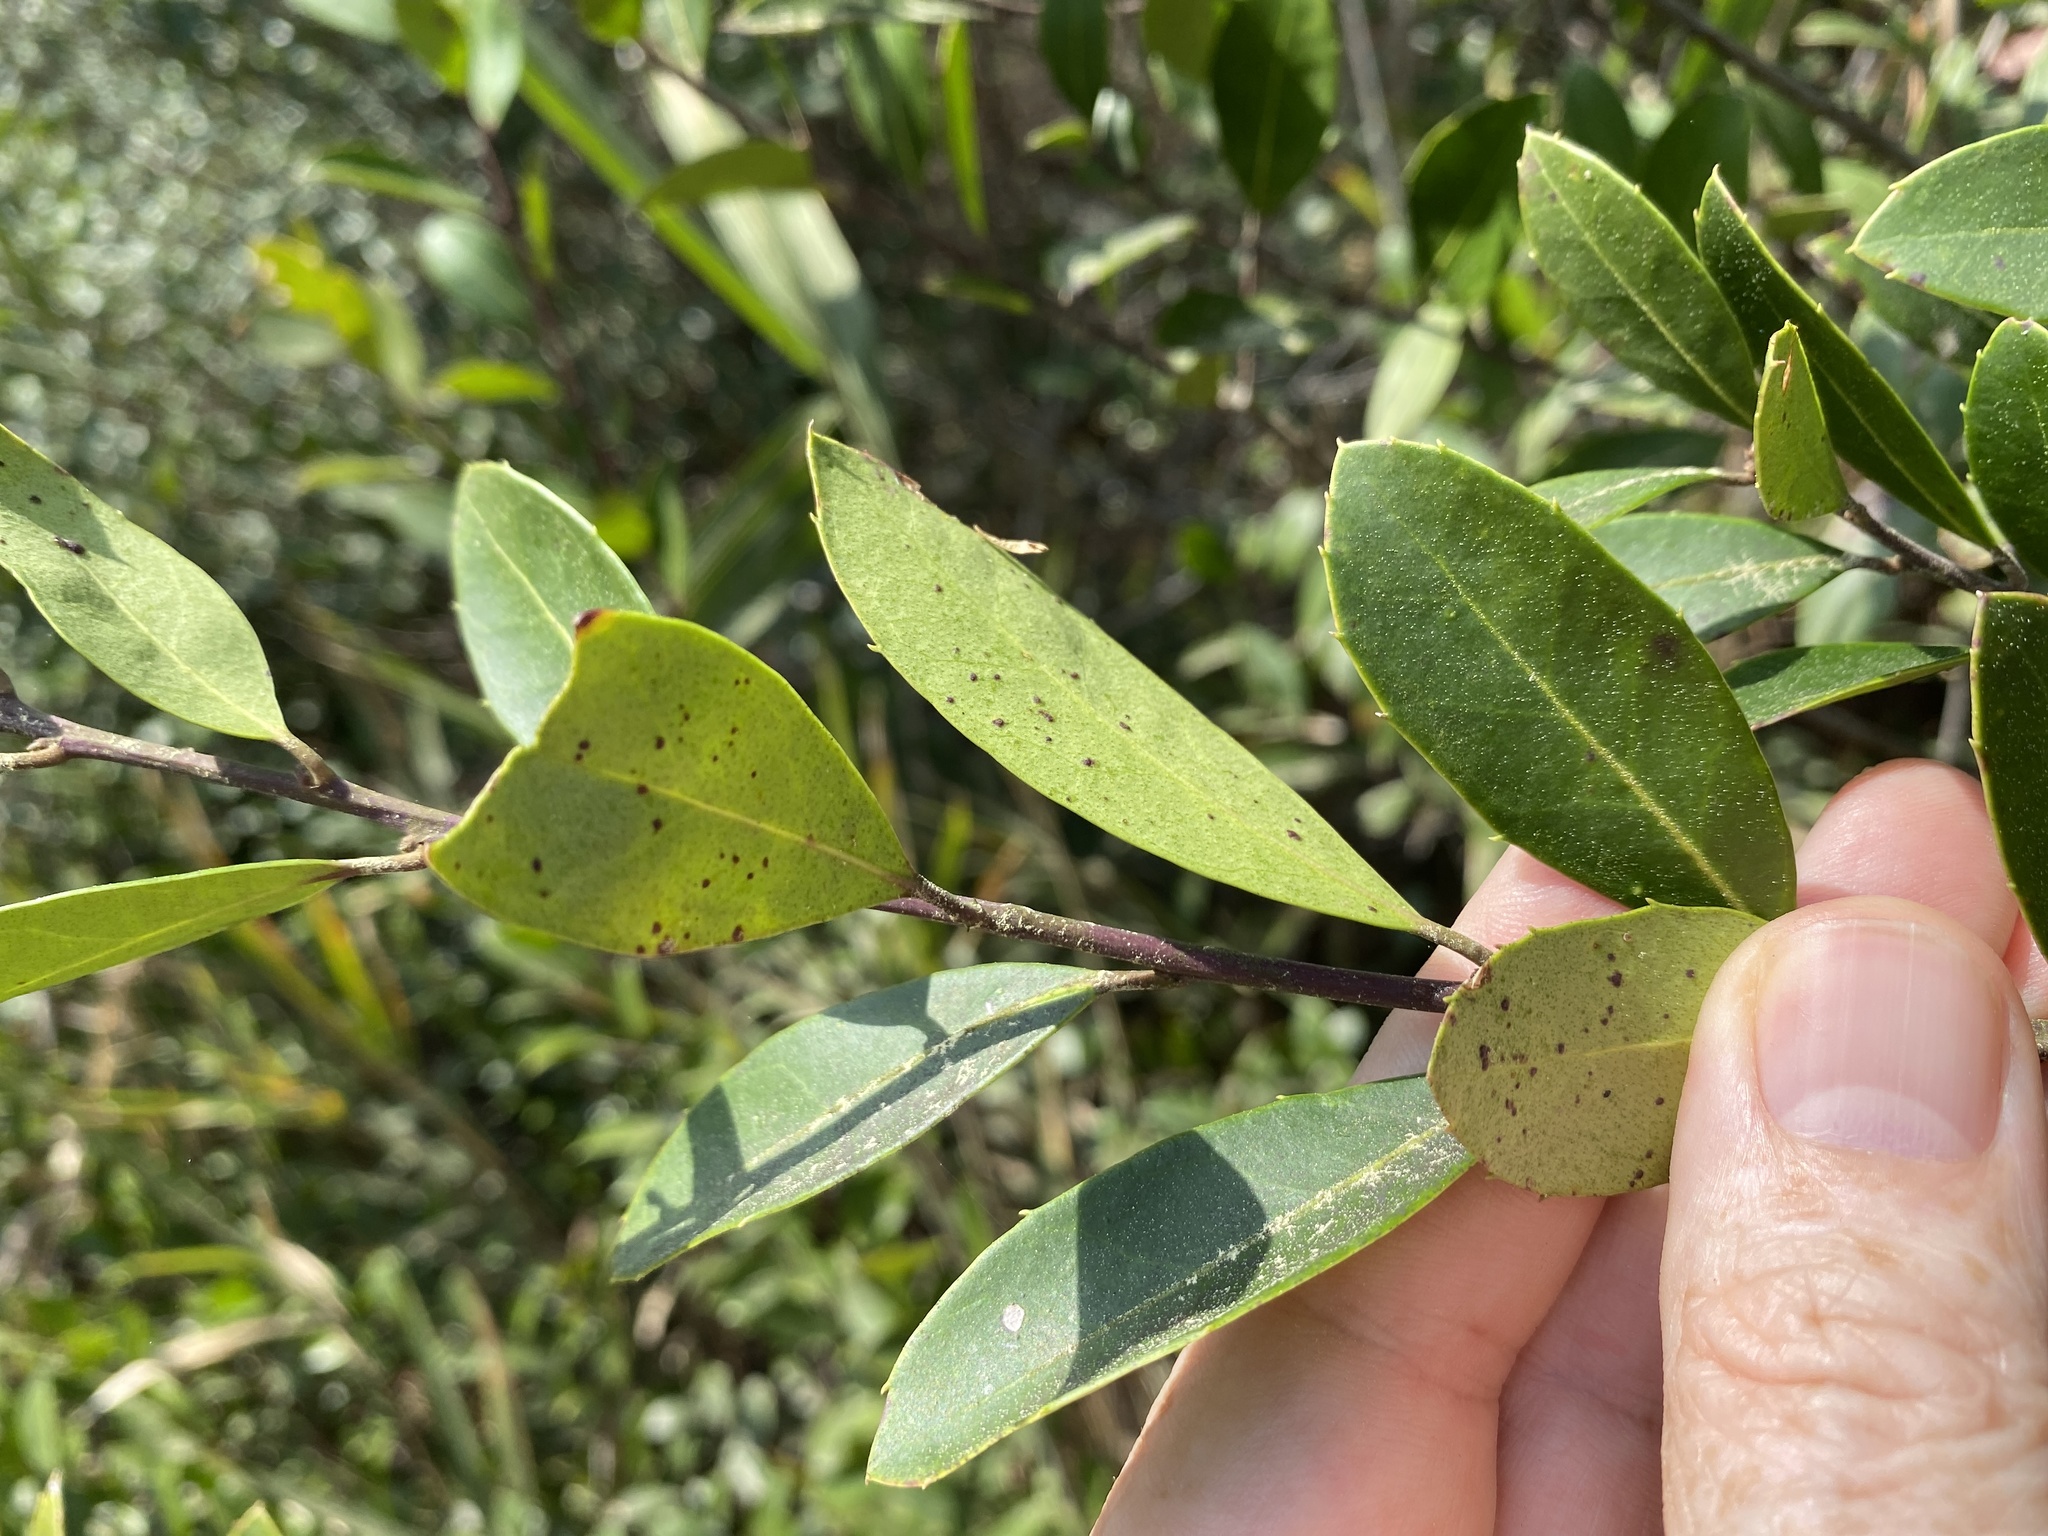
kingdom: Plantae
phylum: Tracheophyta
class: Magnoliopsida
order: Aquifoliales
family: Aquifoliaceae
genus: Ilex
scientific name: Ilex coriacea
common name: Sweet gallberry
